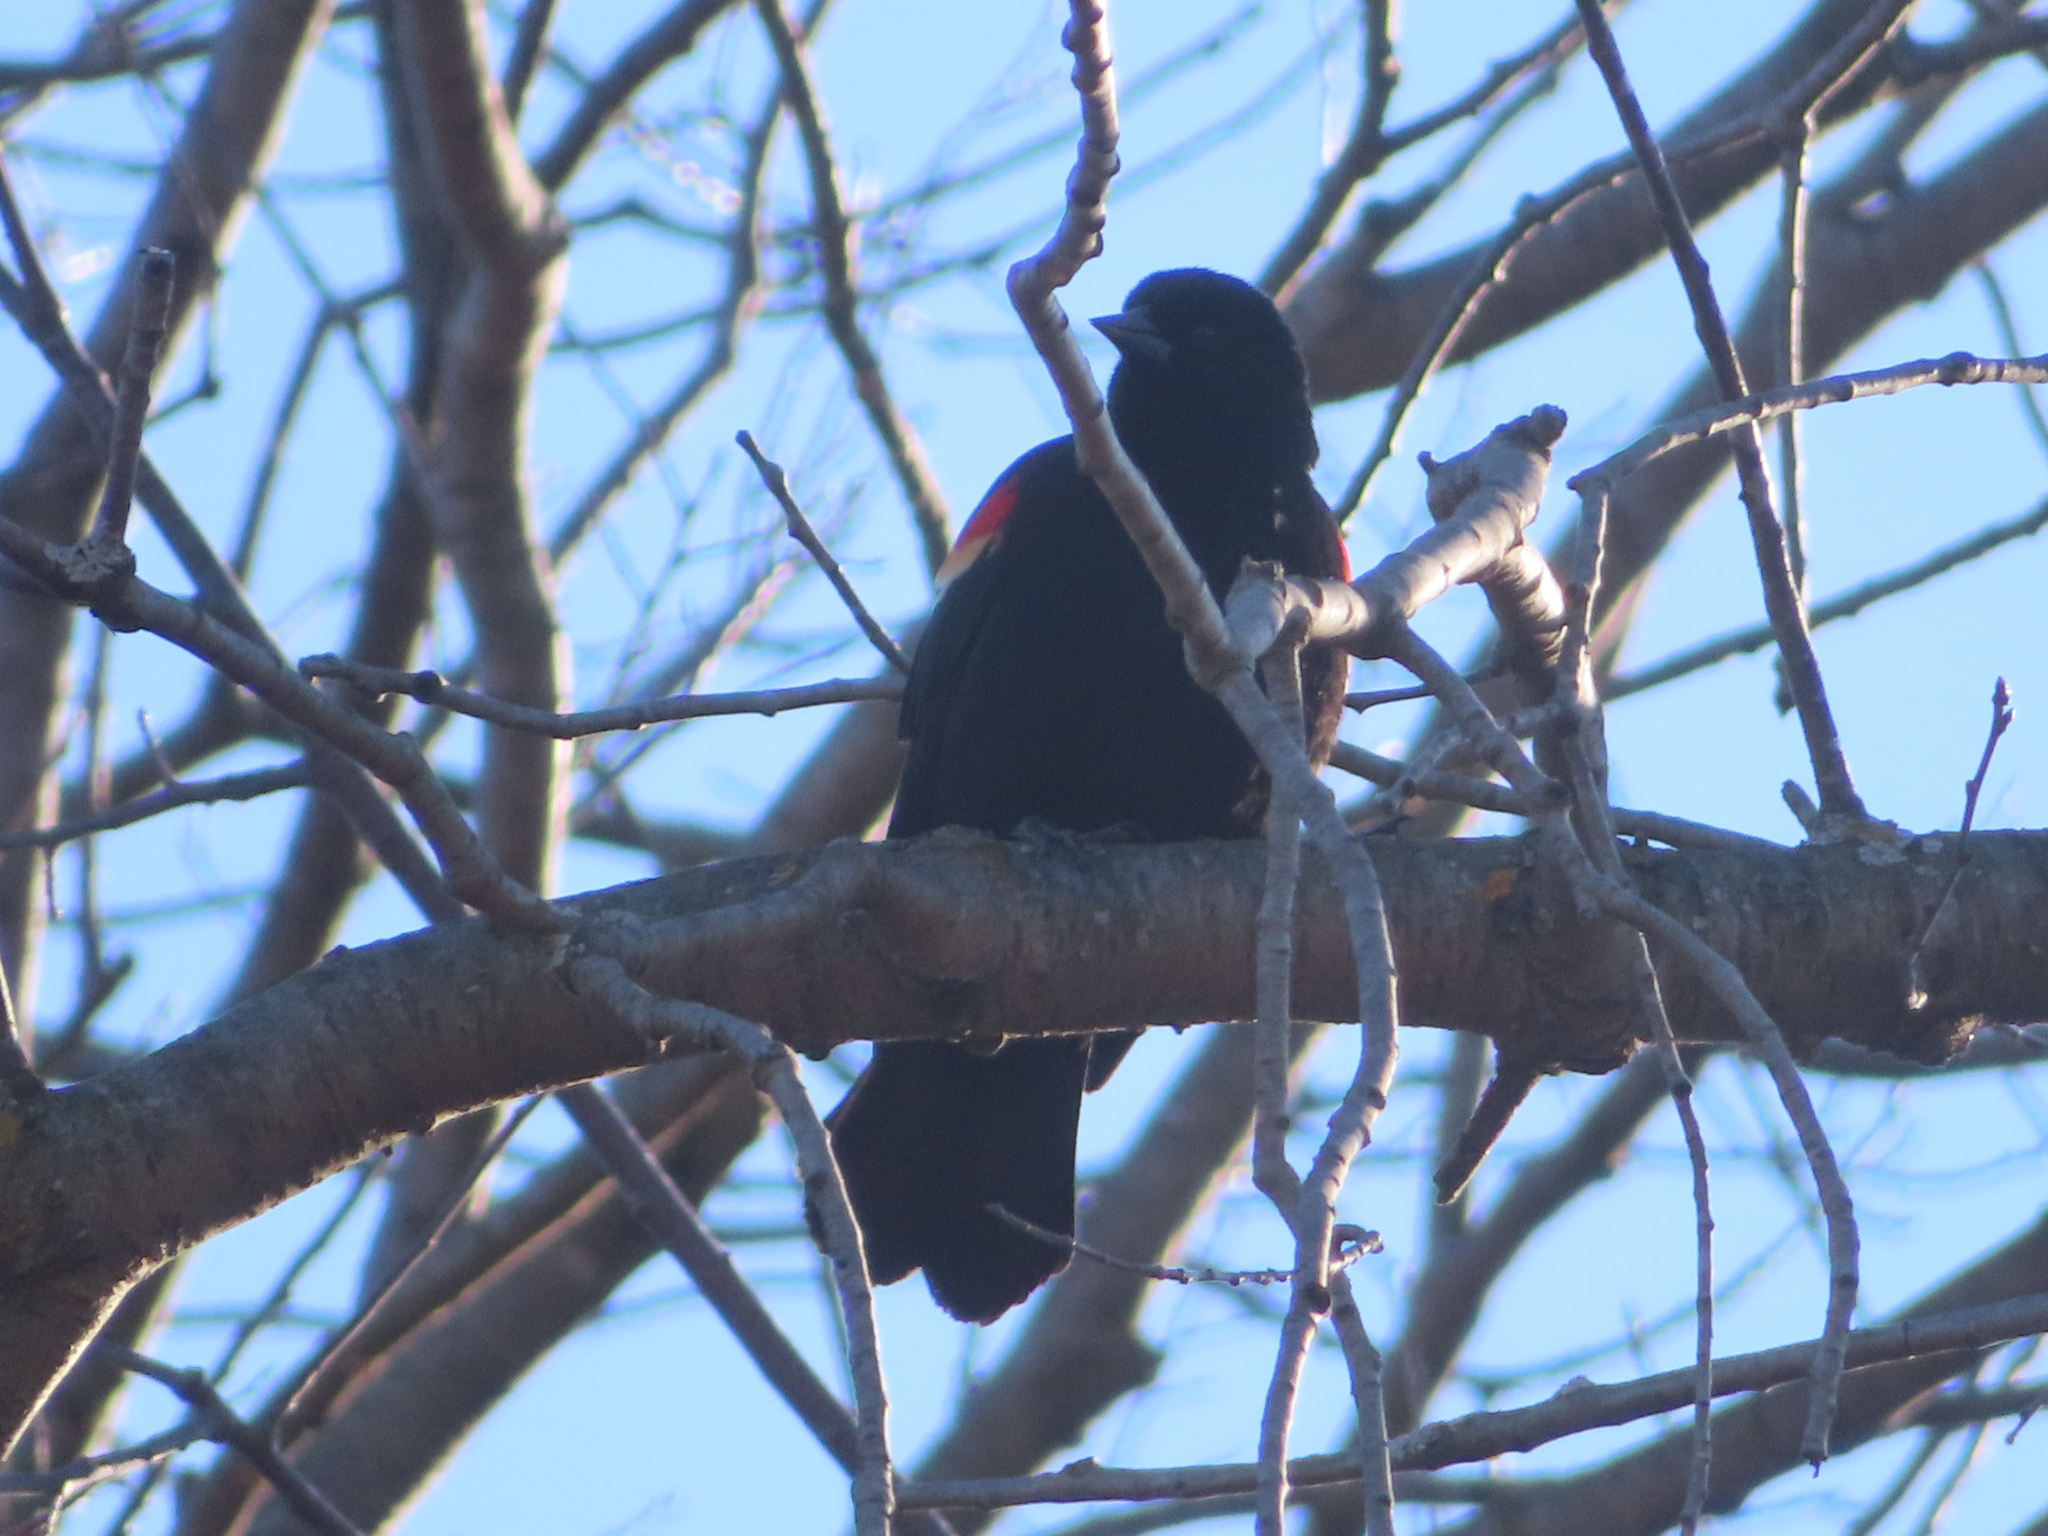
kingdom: Animalia
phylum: Chordata
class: Aves
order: Passeriformes
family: Icteridae
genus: Agelaius
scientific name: Agelaius phoeniceus
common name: Red-winged blackbird
